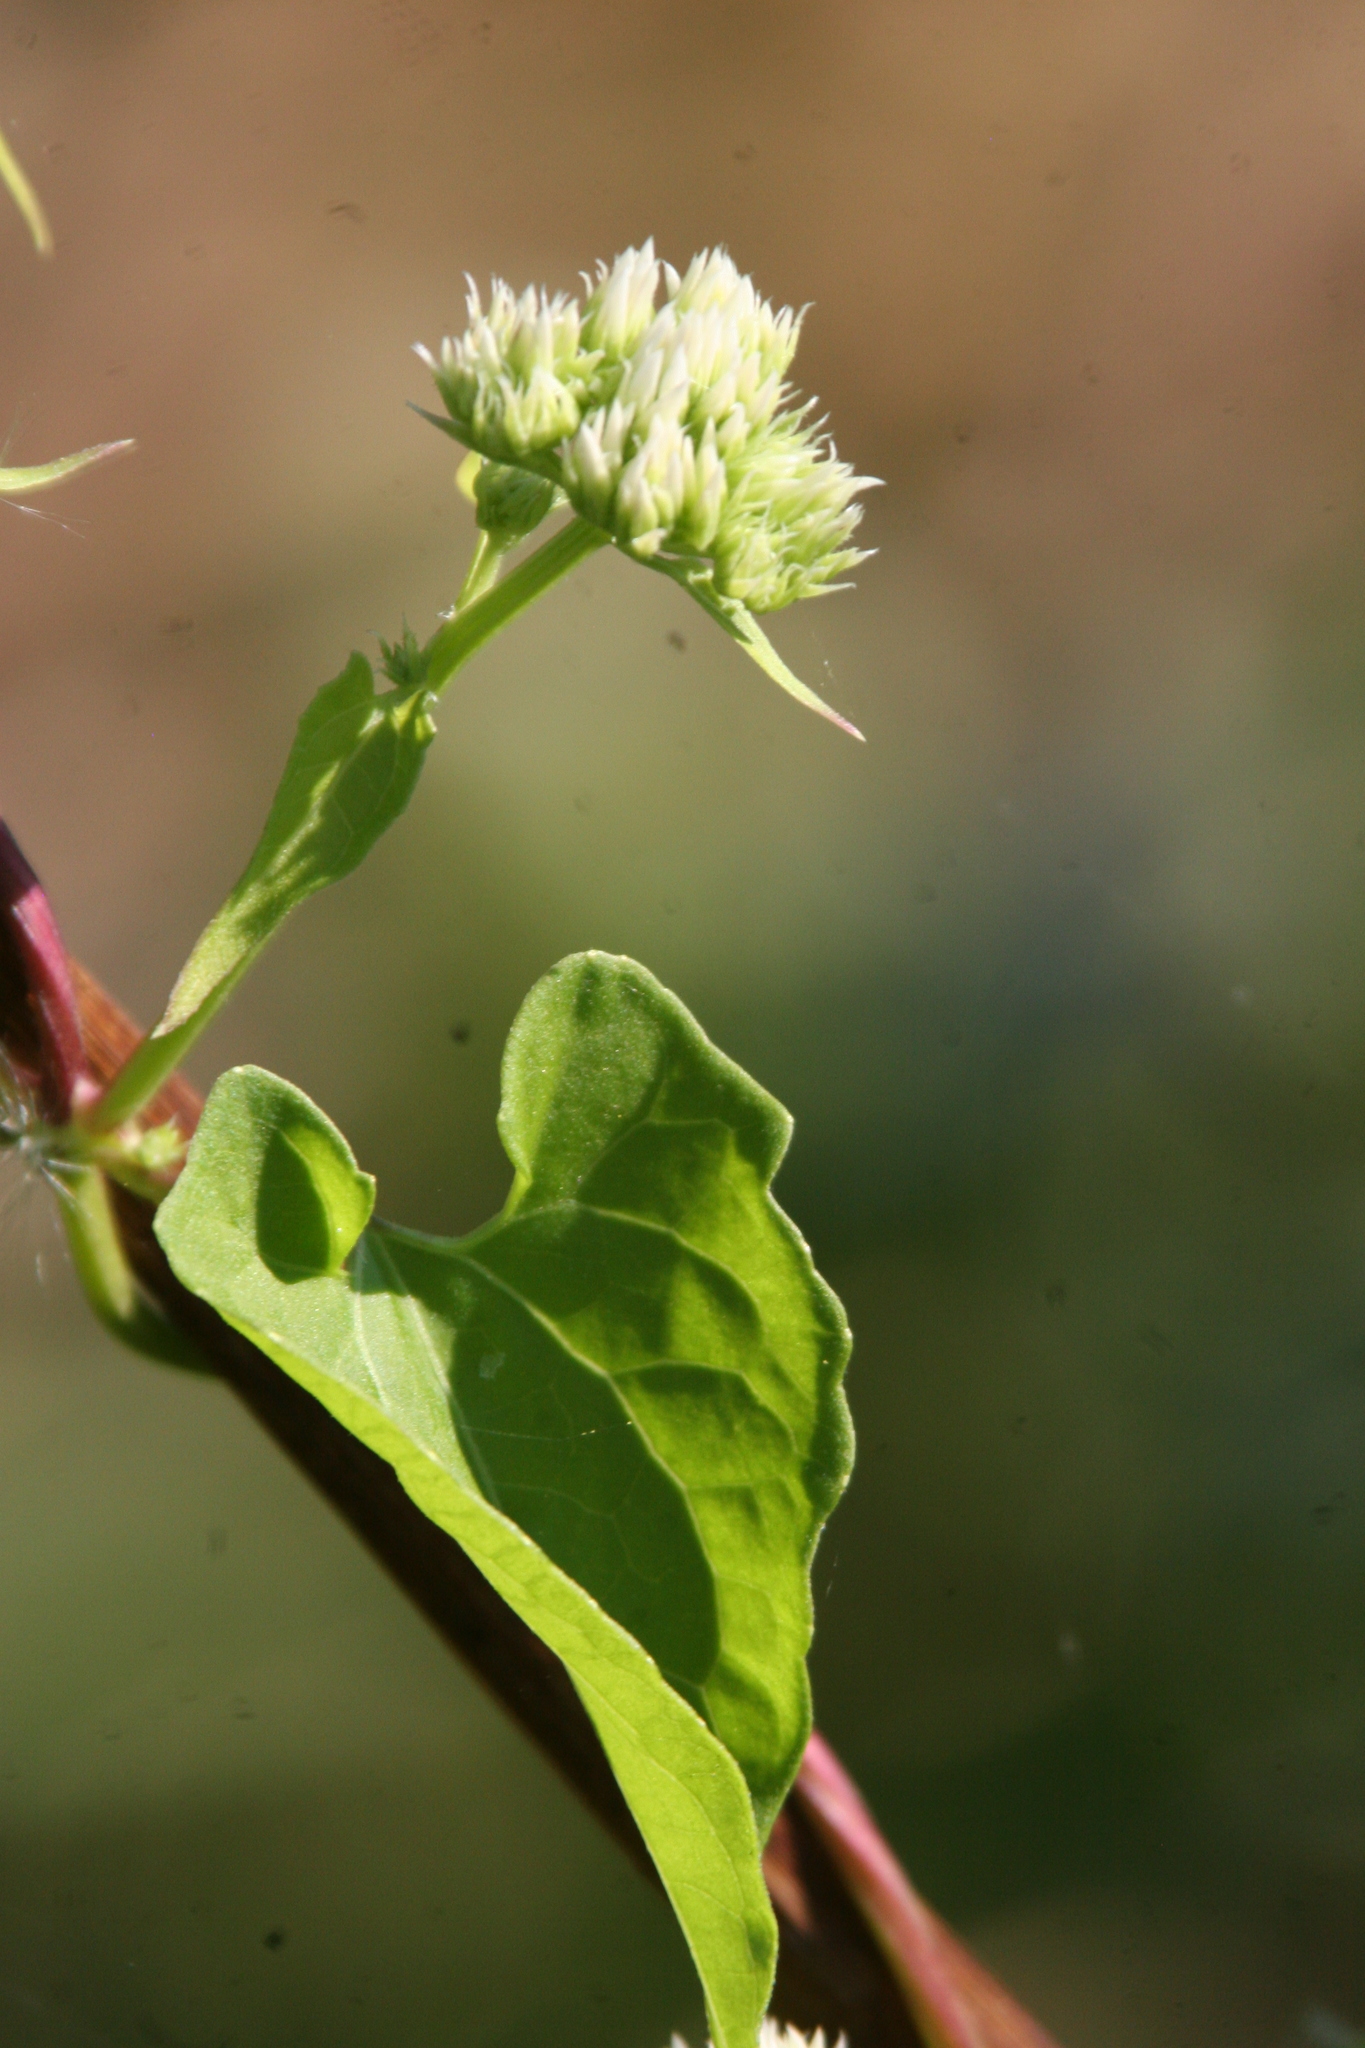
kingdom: Plantae
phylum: Tracheophyta
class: Magnoliopsida
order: Asterales
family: Asteraceae
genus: Mikania
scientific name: Mikania scandens
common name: Climbing hempvine
